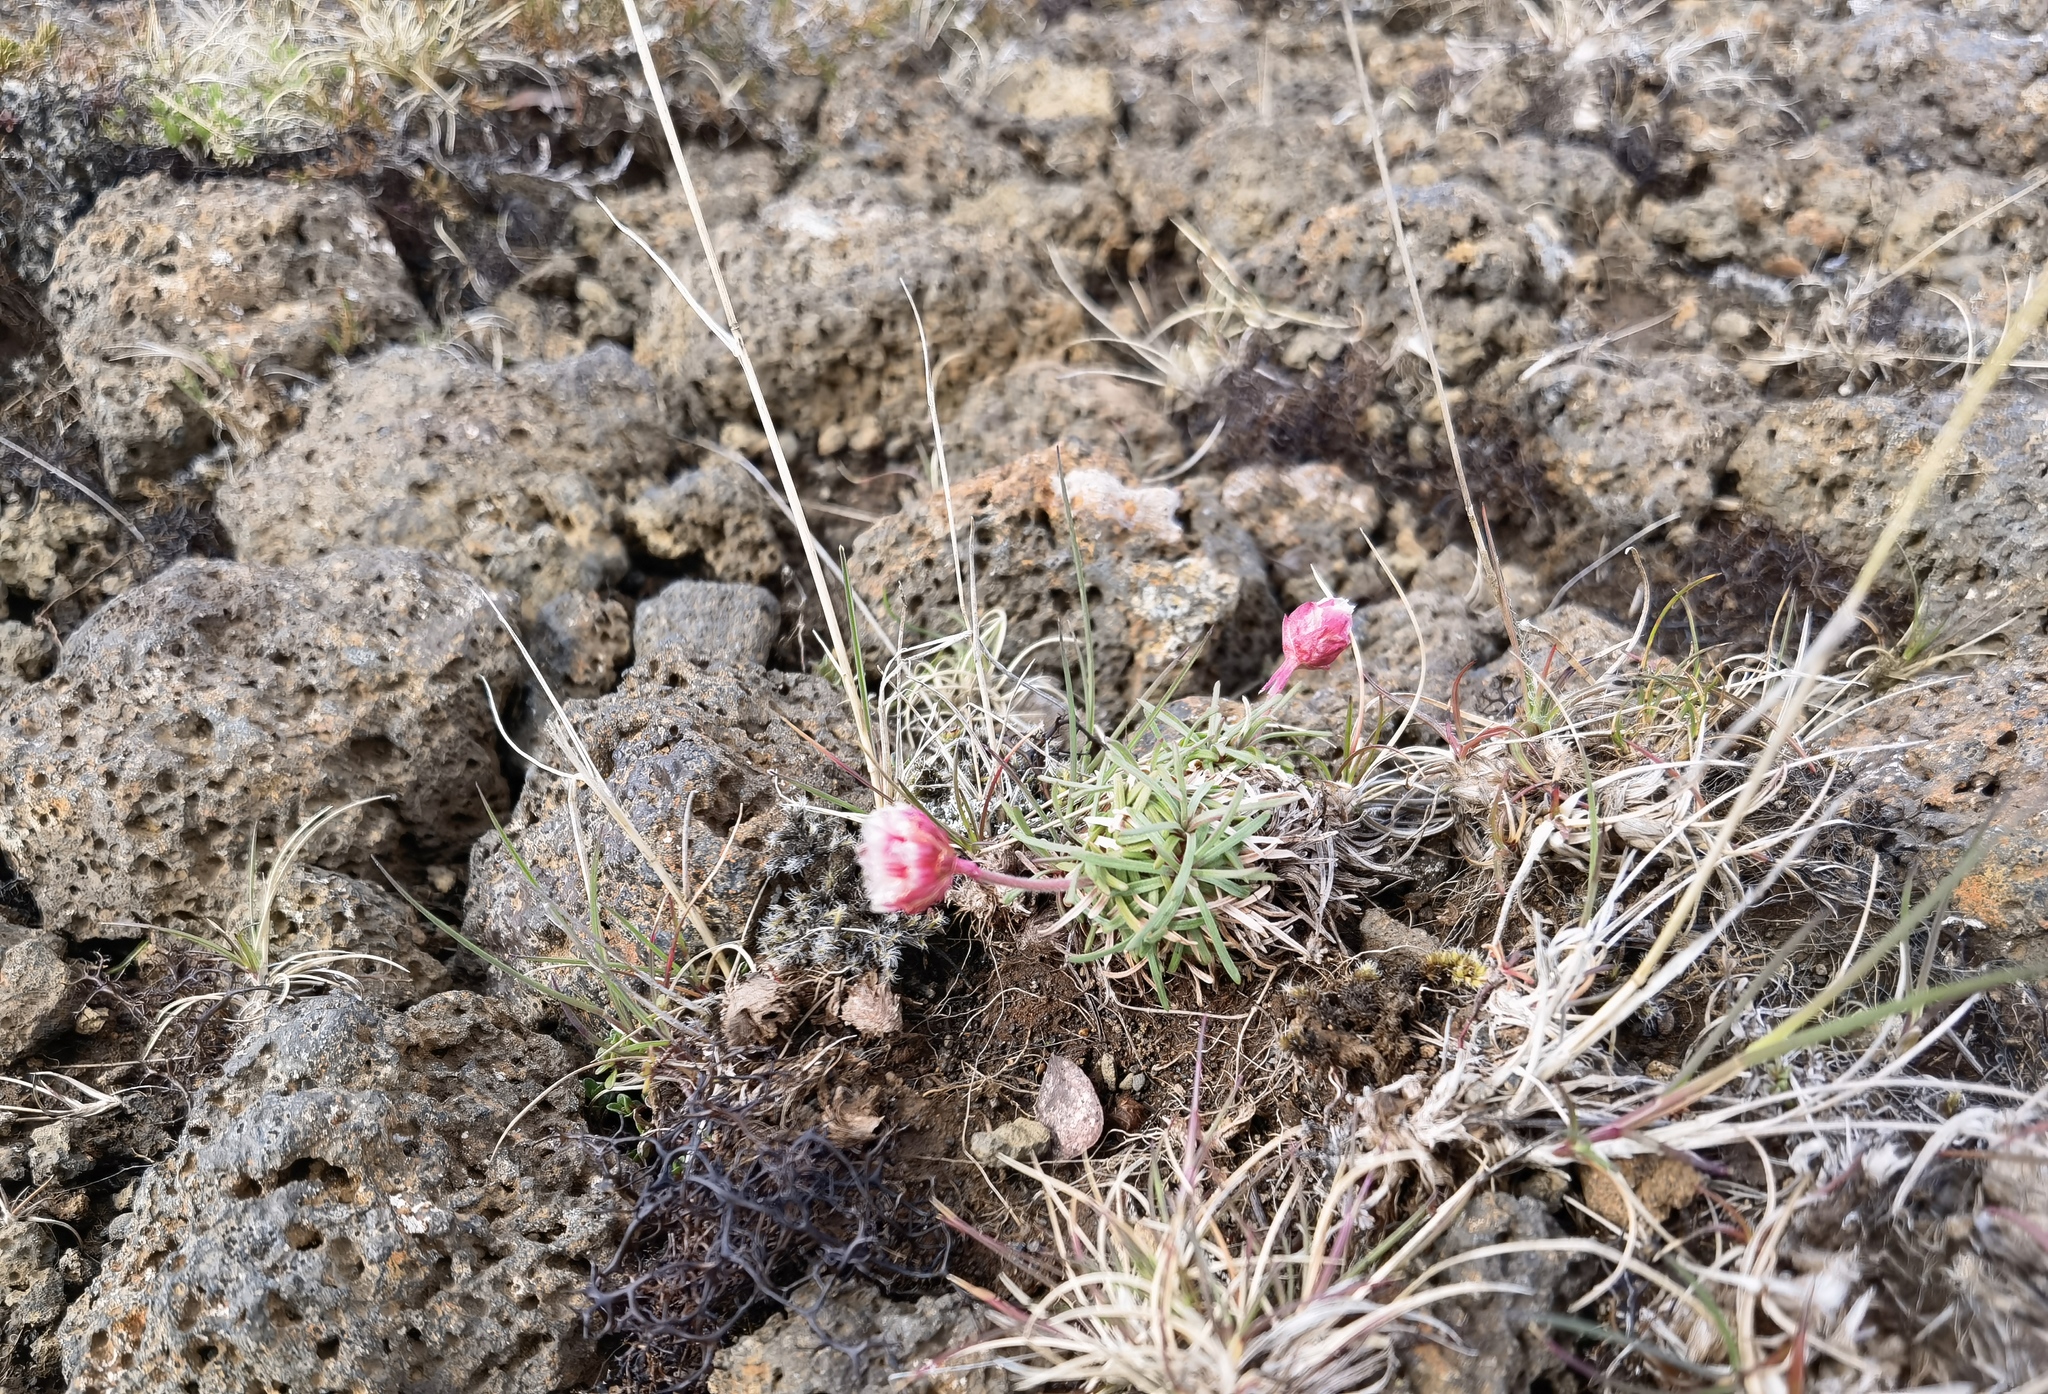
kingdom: Plantae
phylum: Tracheophyta
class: Magnoliopsida
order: Caryophyllales
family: Plumbaginaceae
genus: Armeria
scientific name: Armeria maritima
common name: Thrift
